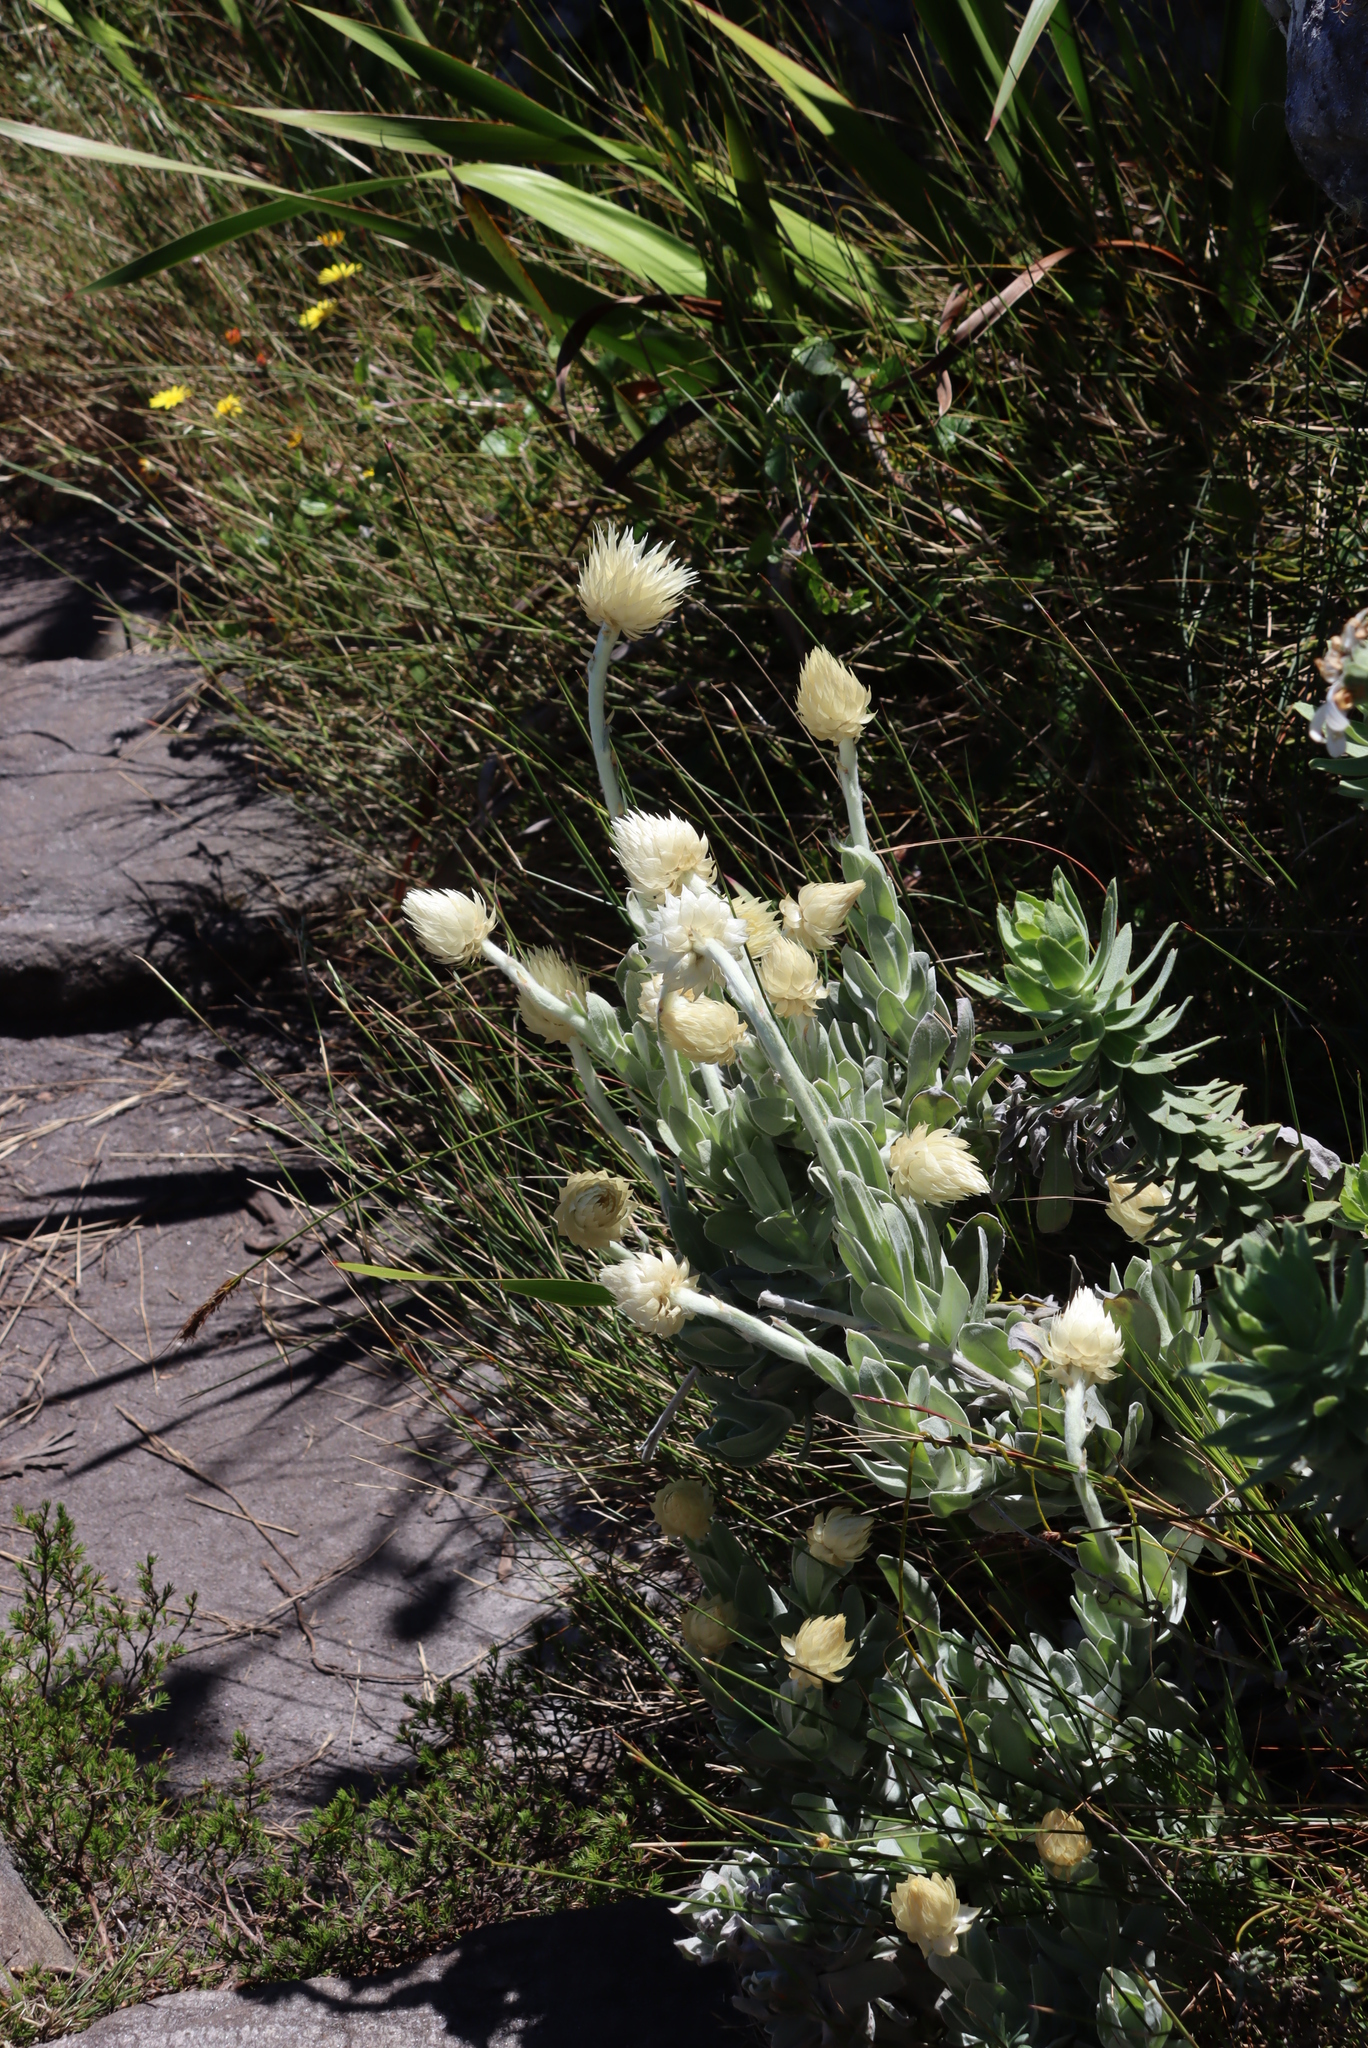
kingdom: Plantae
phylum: Tracheophyta
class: Magnoliopsida
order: Asterales
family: Asteraceae
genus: Syncarpha
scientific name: Syncarpha speciosissima
